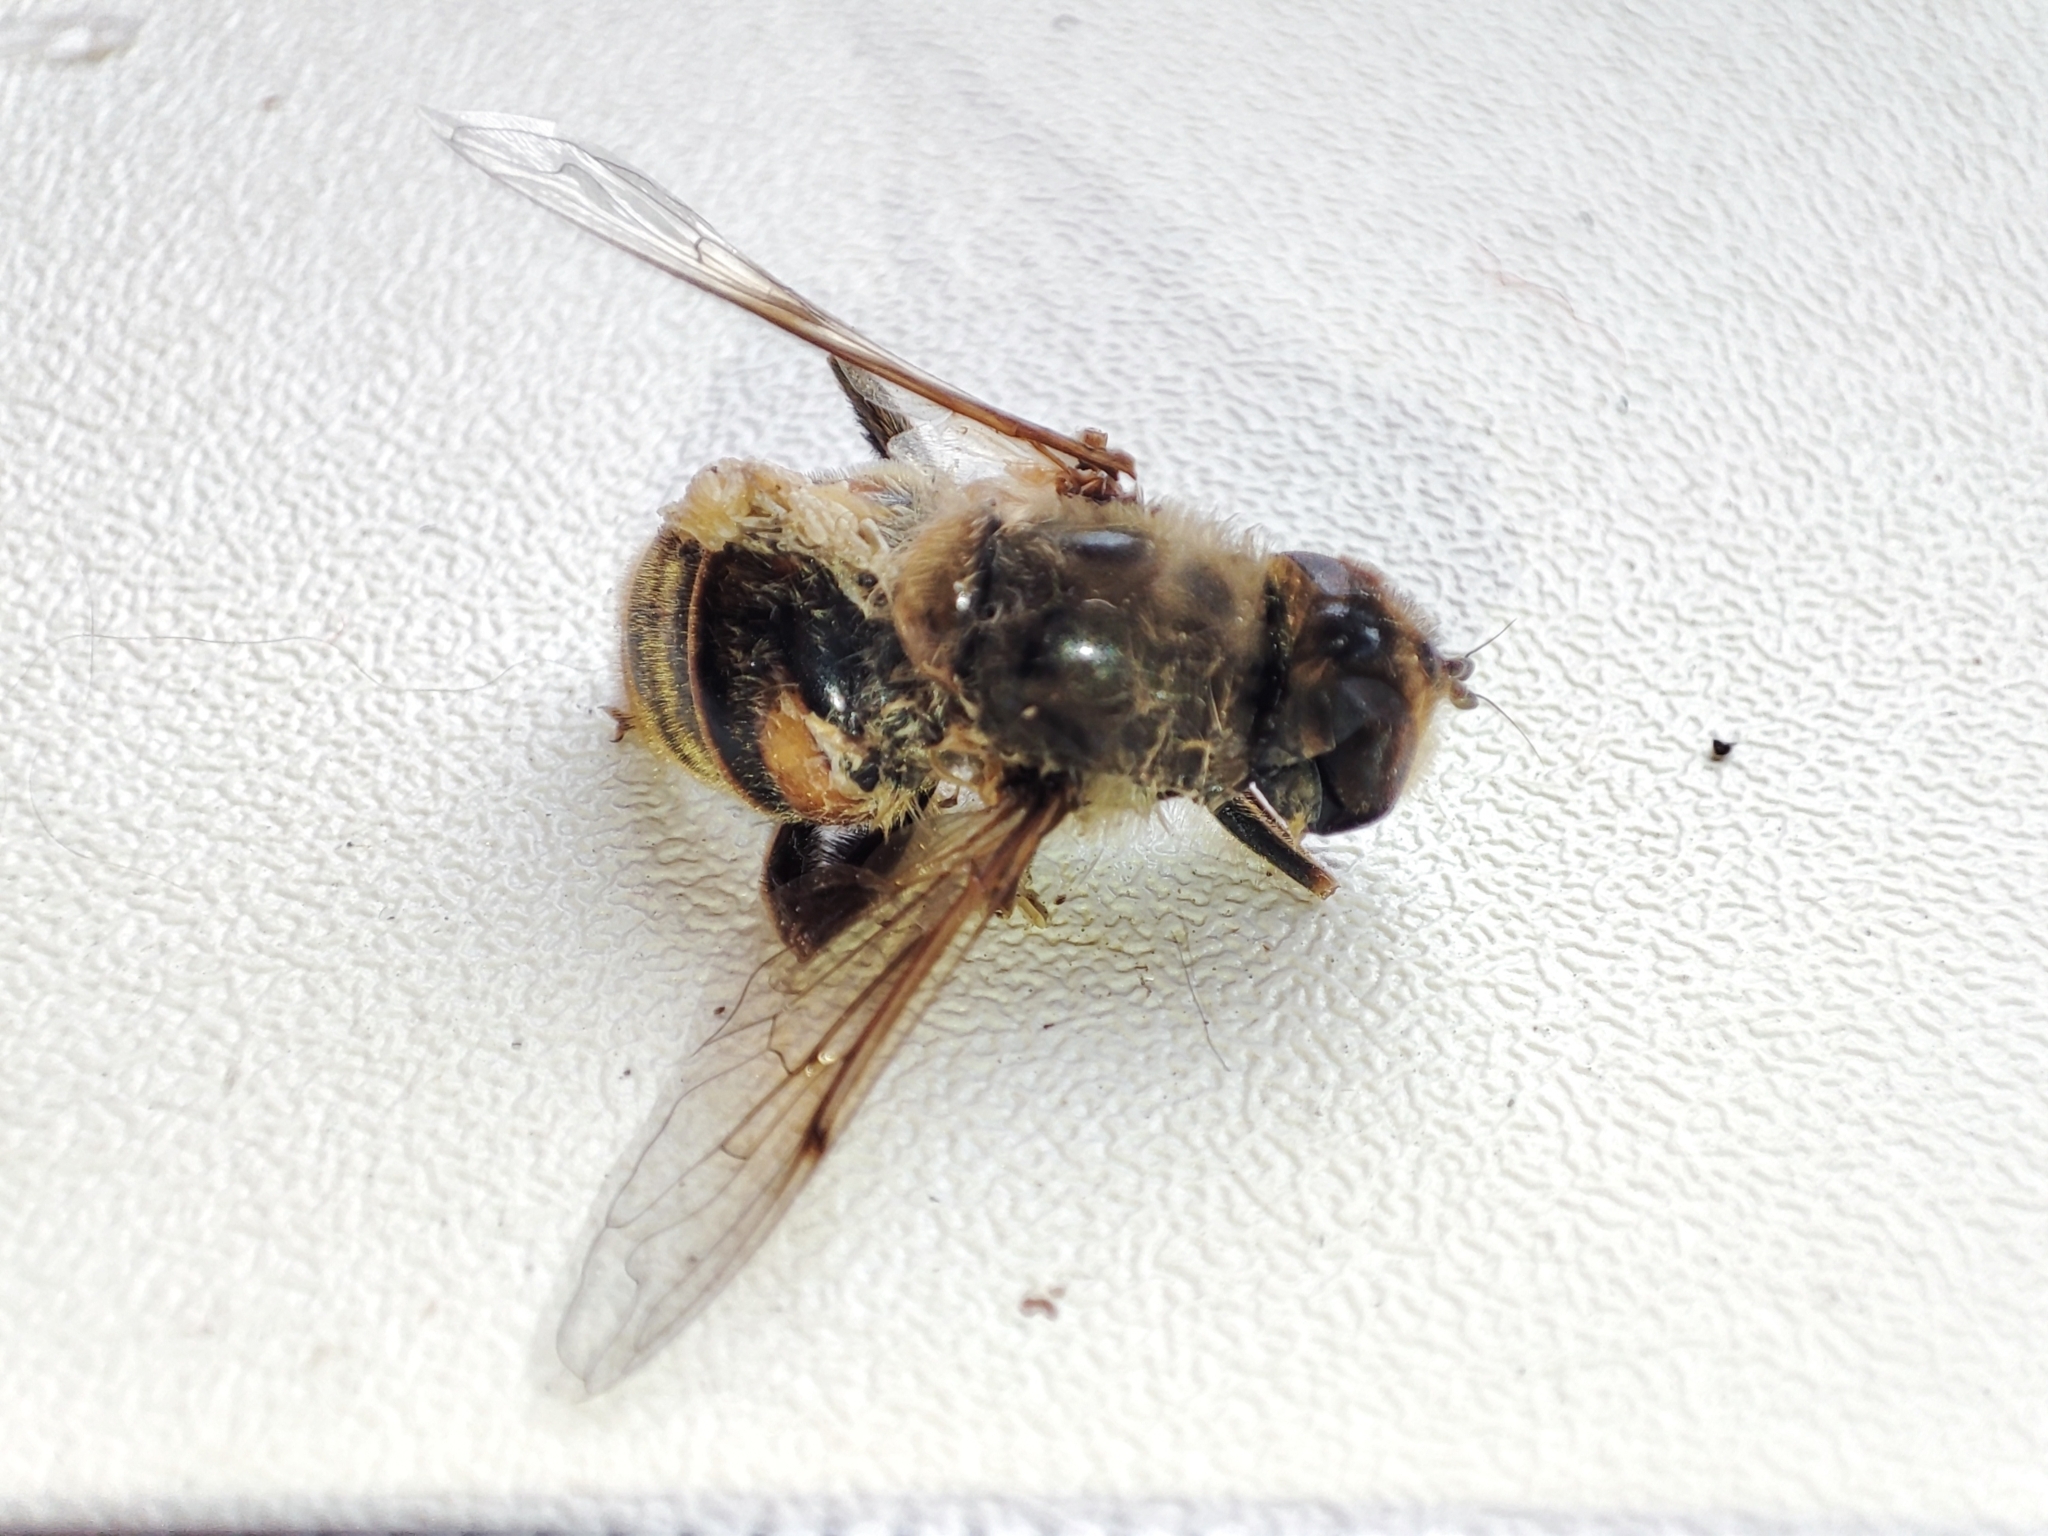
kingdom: Animalia
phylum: Arthropoda
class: Insecta
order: Diptera
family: Syrphidae
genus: Eristalis
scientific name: Eristalis tenax
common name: Drone fly
